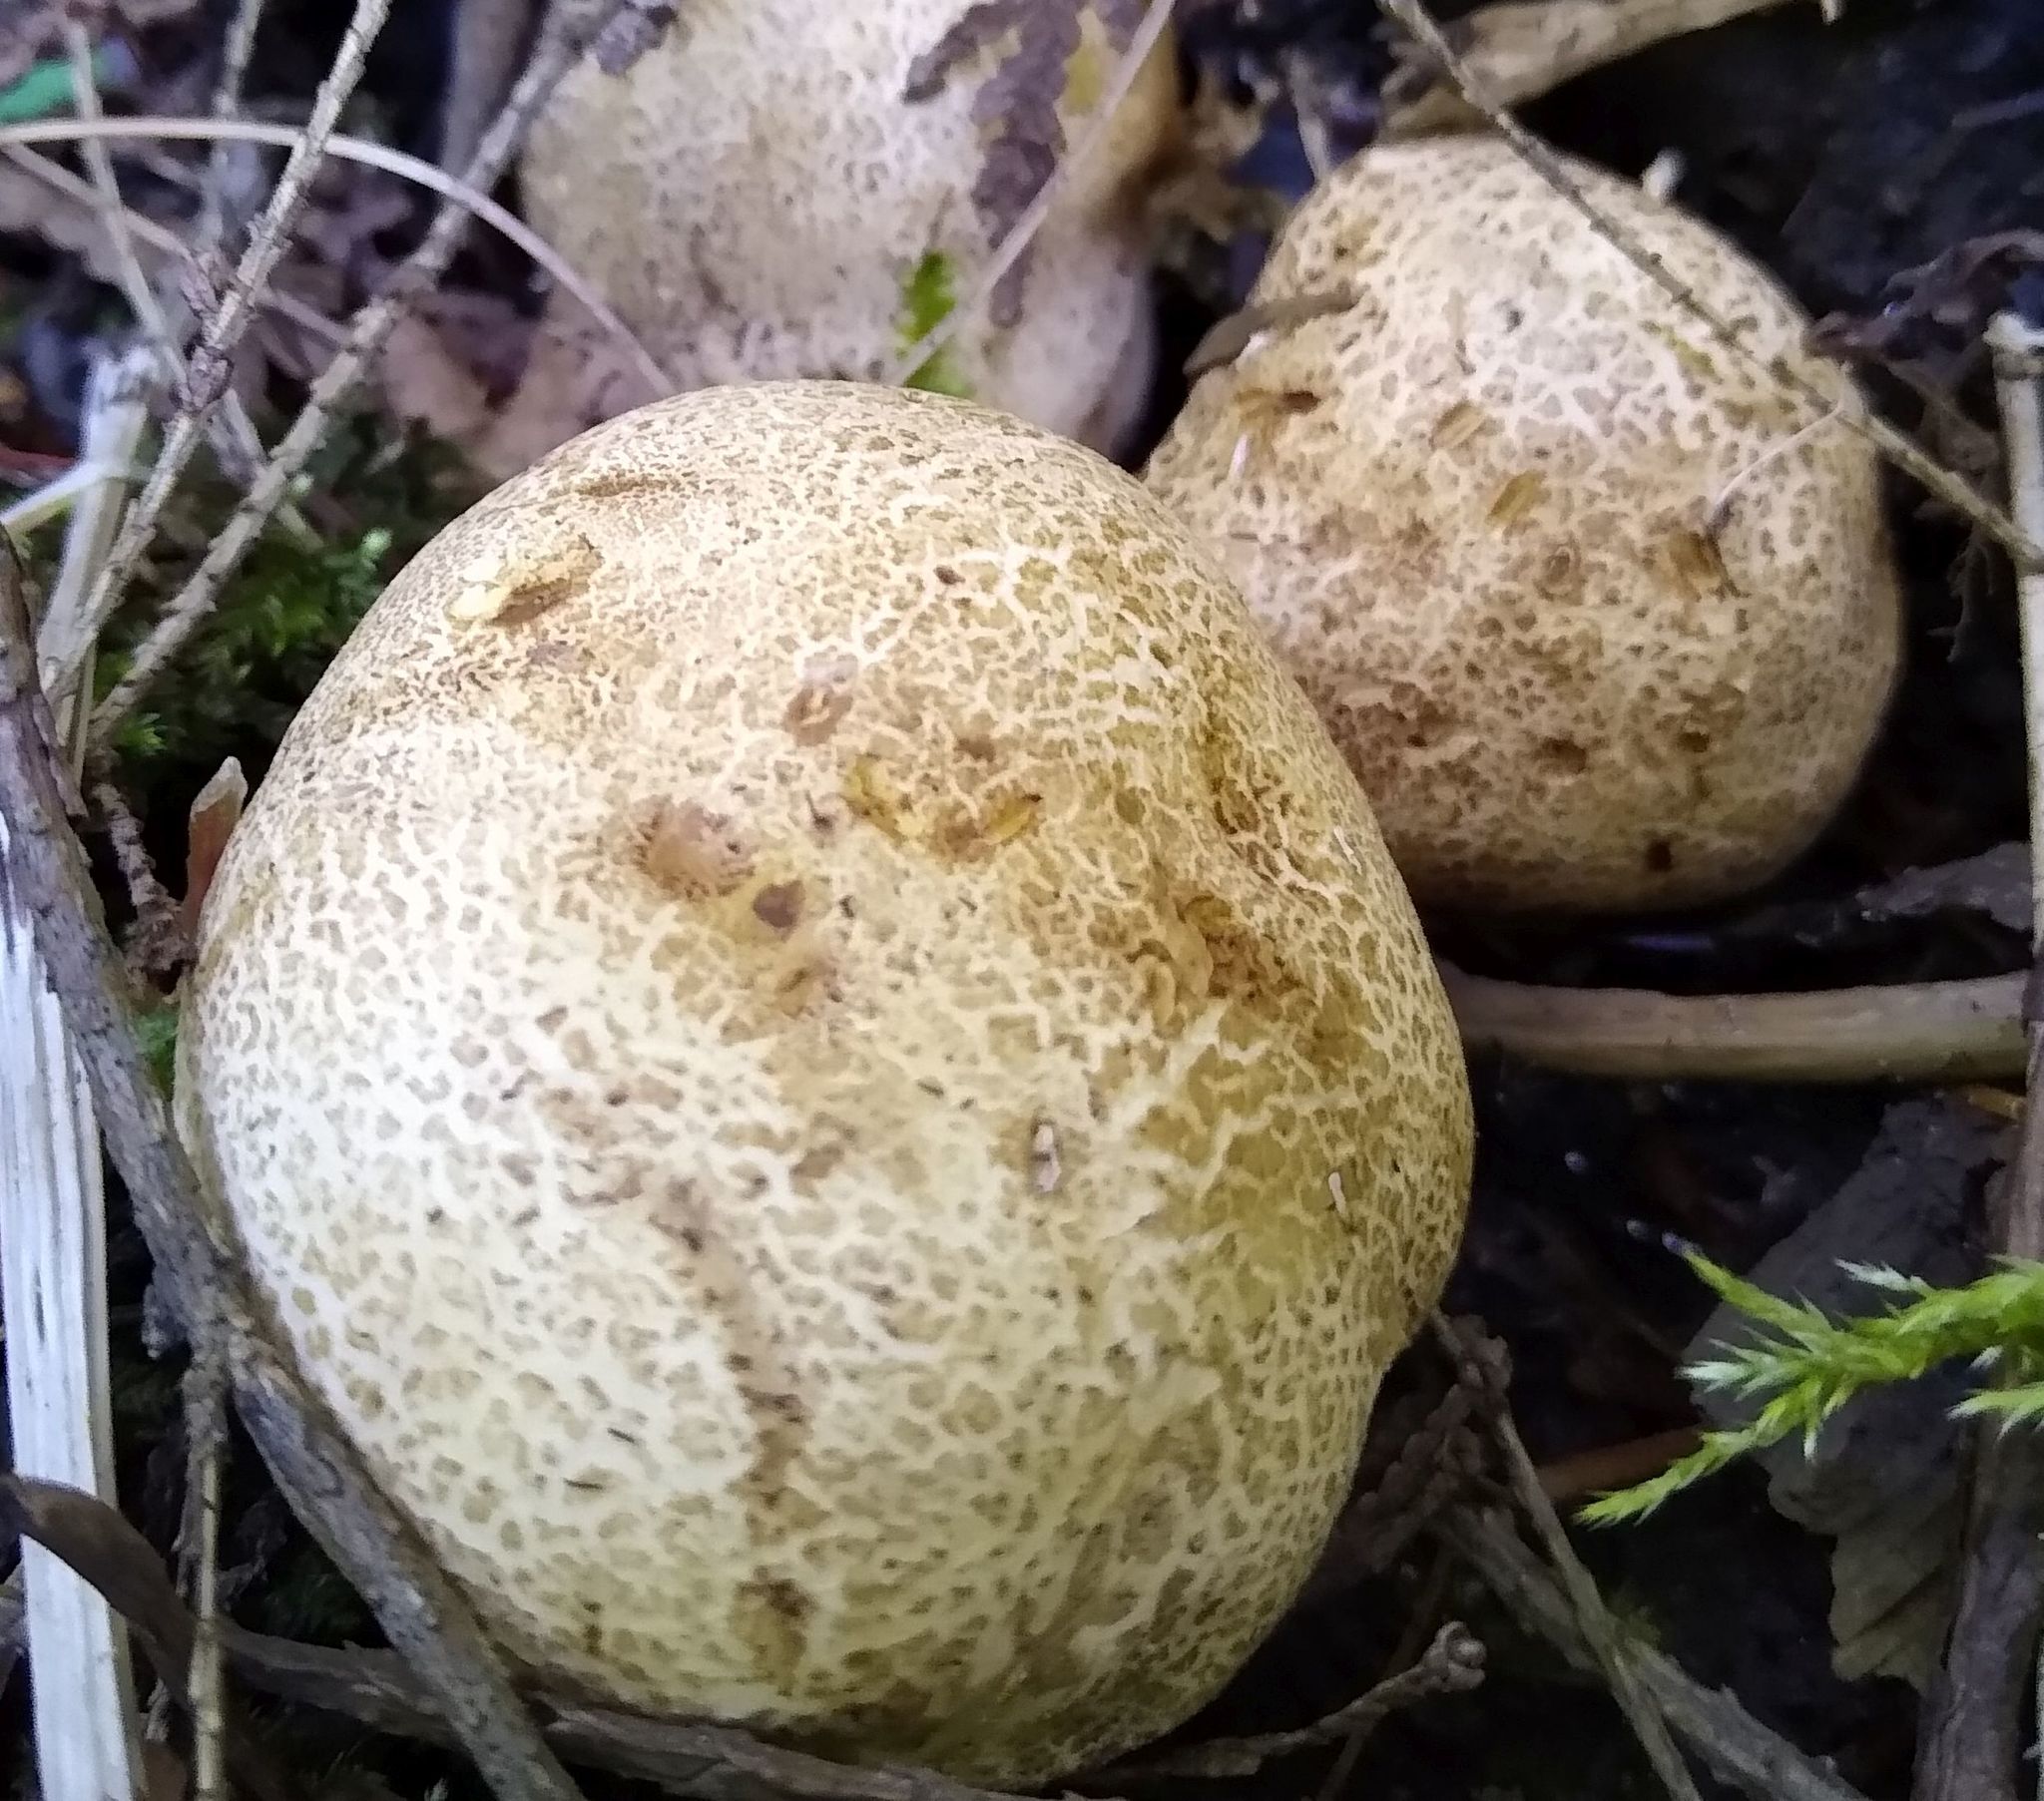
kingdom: Fungi
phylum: Basidiomycota
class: Agaricomycetes
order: Boletales
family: Sclerodermataceae
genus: Scleroderma
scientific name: Scleroderma citrinum
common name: Common earthball
